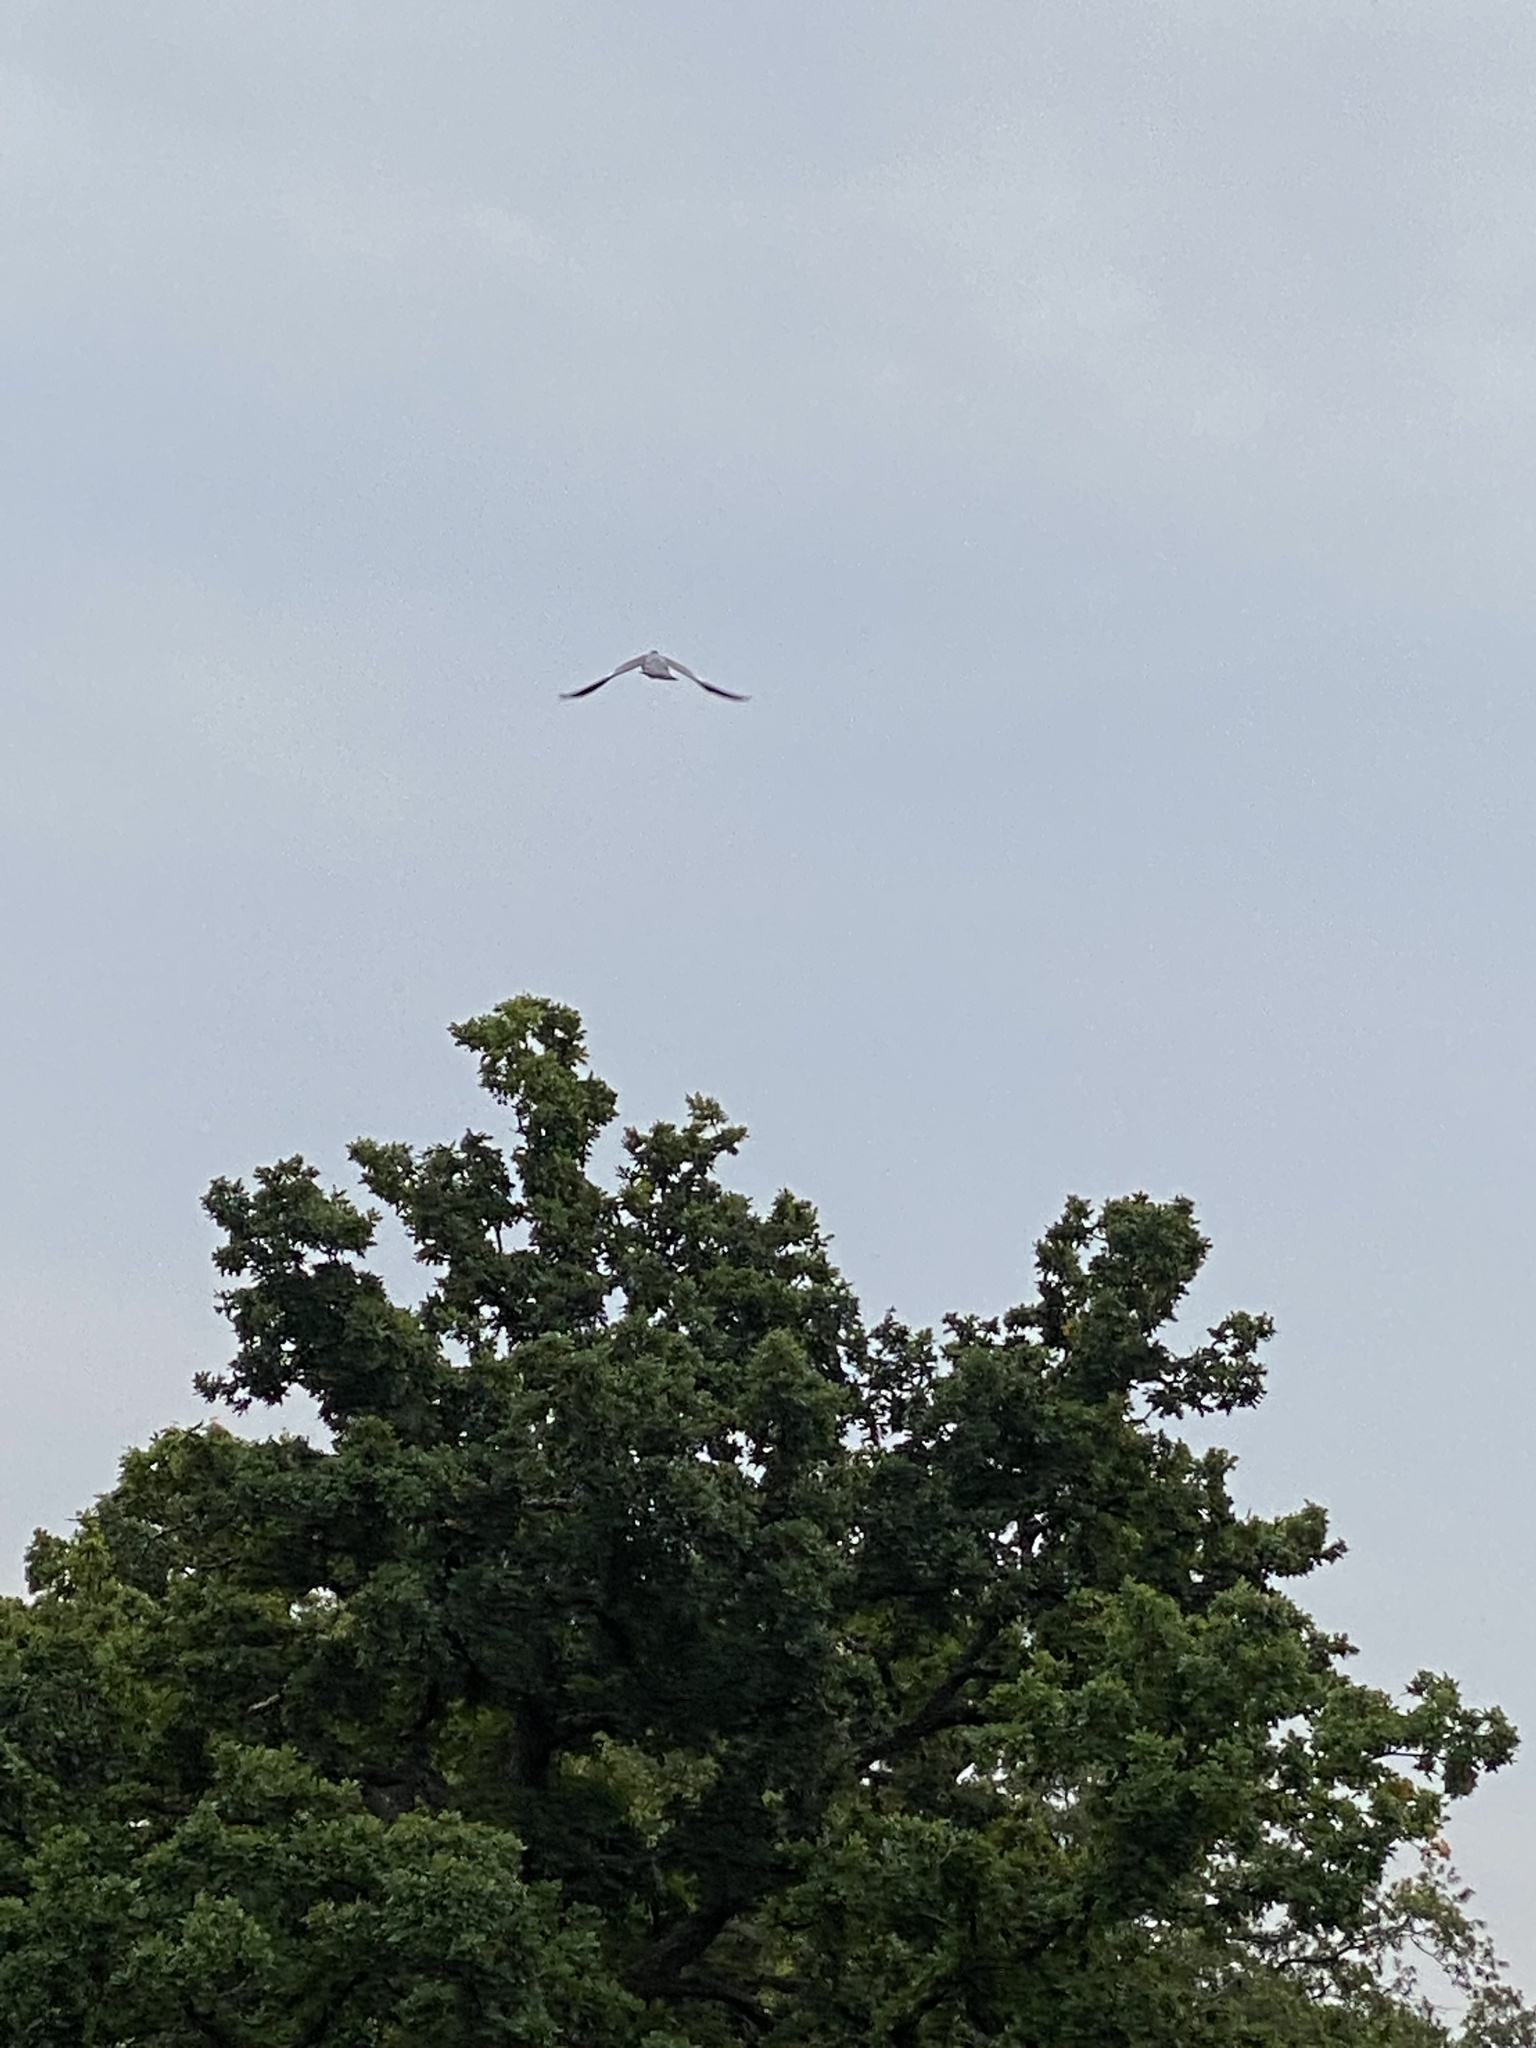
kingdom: Animalia
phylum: Chordata
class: Aves
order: Columbiformes
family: Columbidae
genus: Columba
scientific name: Columba palumbus
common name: Common wood pigeon
